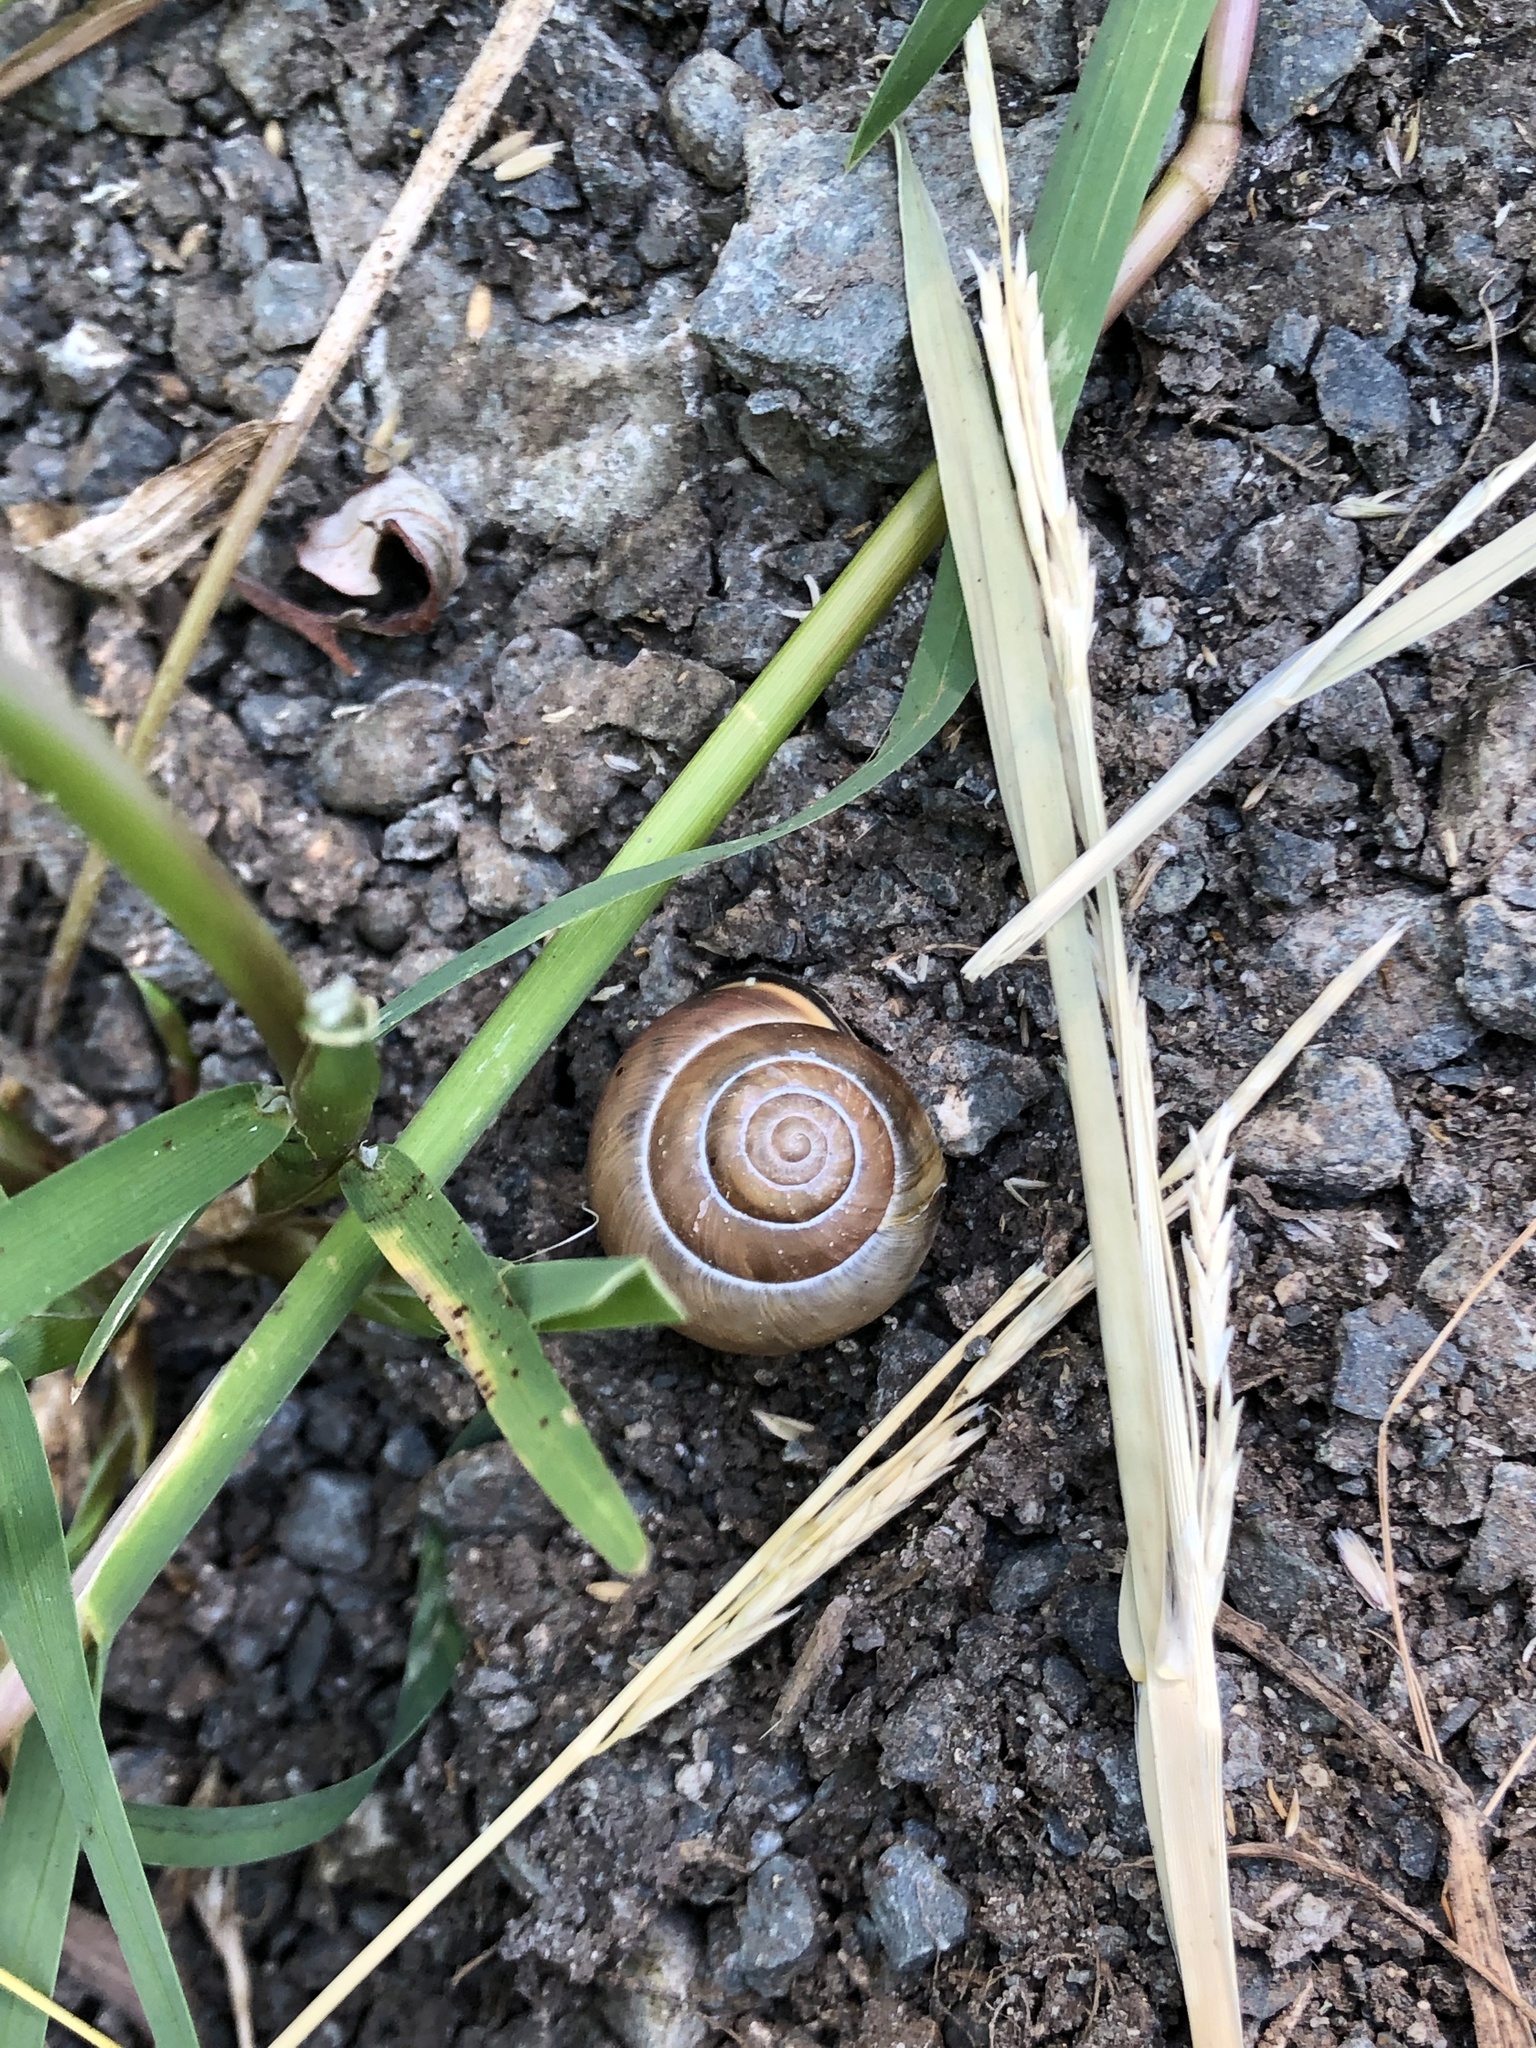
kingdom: Animalia
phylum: Mollusca
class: Gastropoda
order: Stylommatophora
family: Helicidae
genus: Cepaea
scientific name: Cepaea nemoralis
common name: Grovesnail
